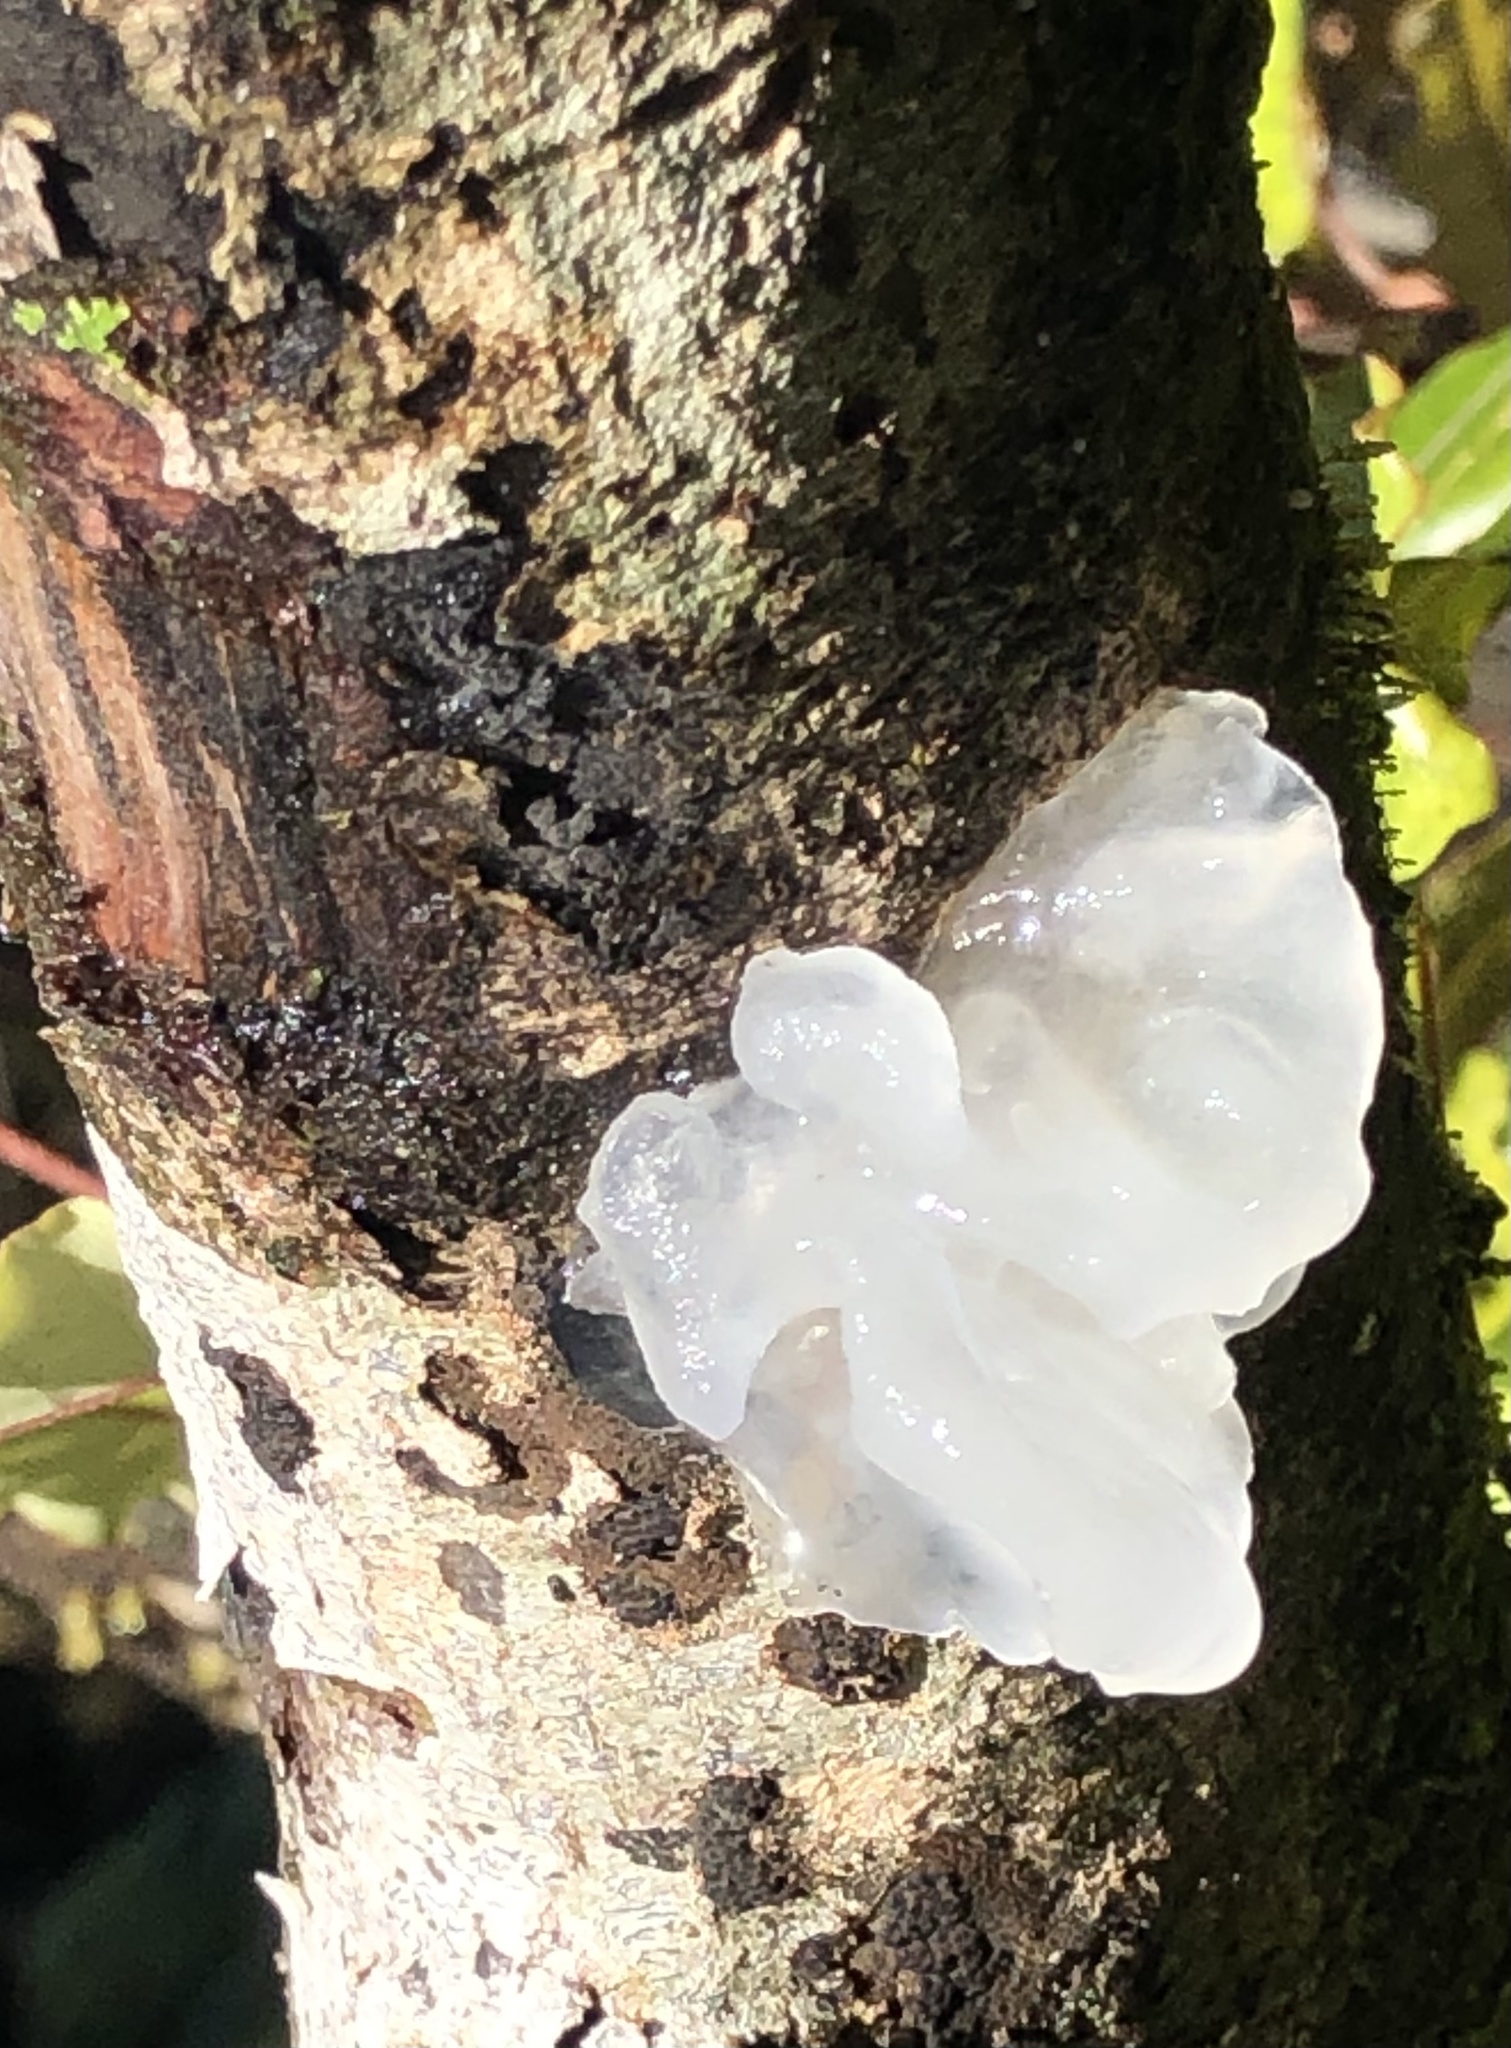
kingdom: Fungi
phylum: Basidiomycota
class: Tremellomycetes
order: Tremellales
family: Tremellaceae
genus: Tremella
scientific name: Tremella fuciformis
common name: Snow fungus
